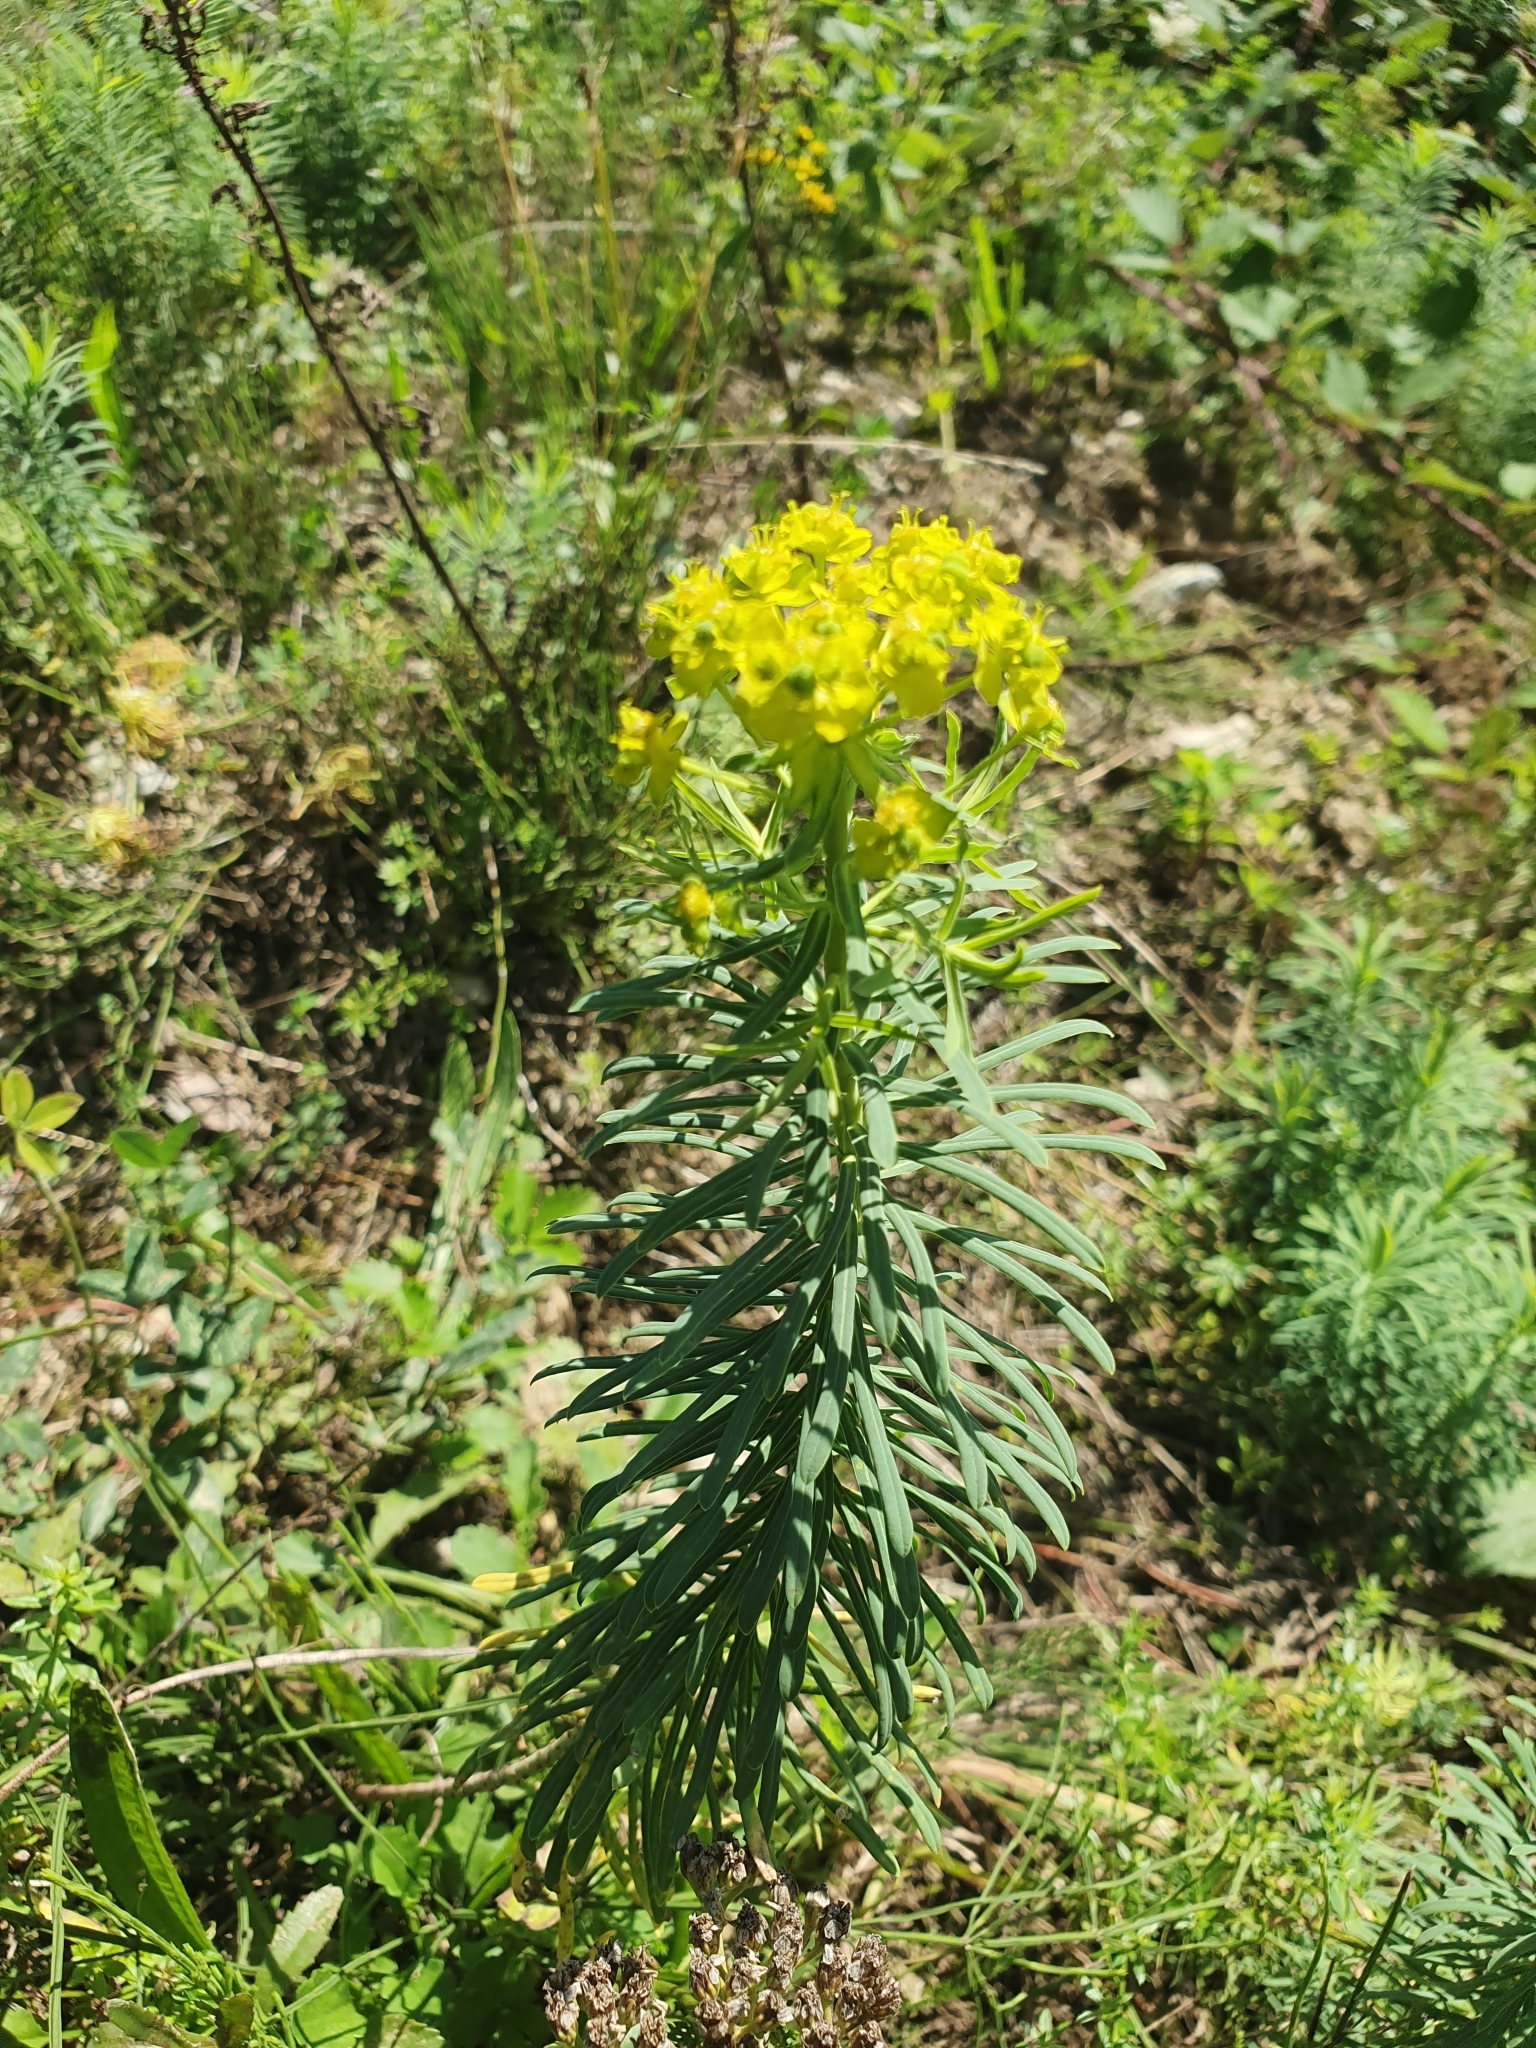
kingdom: Plantae
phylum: Tracheophyta
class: Magnoliopsida
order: Malpighiales
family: Euphorbiaceae
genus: Euphorbia
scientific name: Euphorbia cyparissias
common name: Cypress spurge
